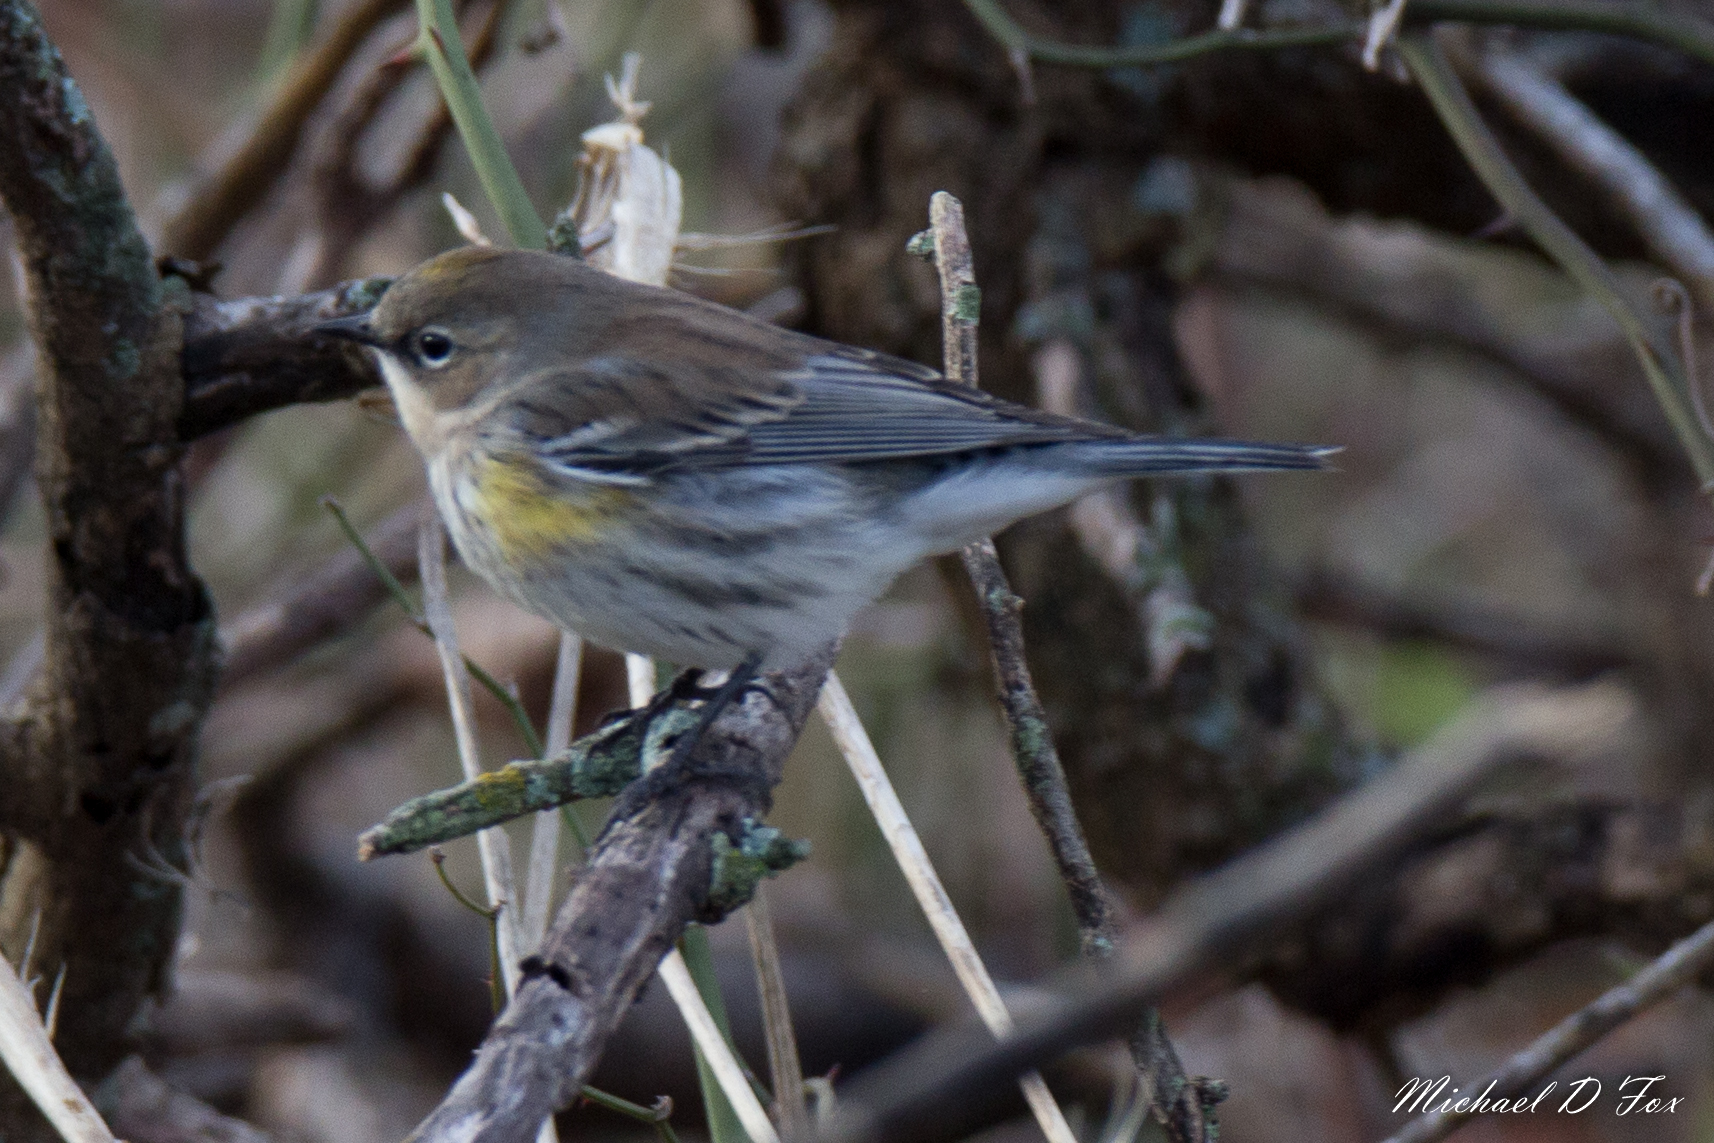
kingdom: Animalia
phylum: Chordata
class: Aves
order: Passeriformes
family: Parulidae
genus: Setophaga
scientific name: Setophaga coronata
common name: Myrtle warbler
